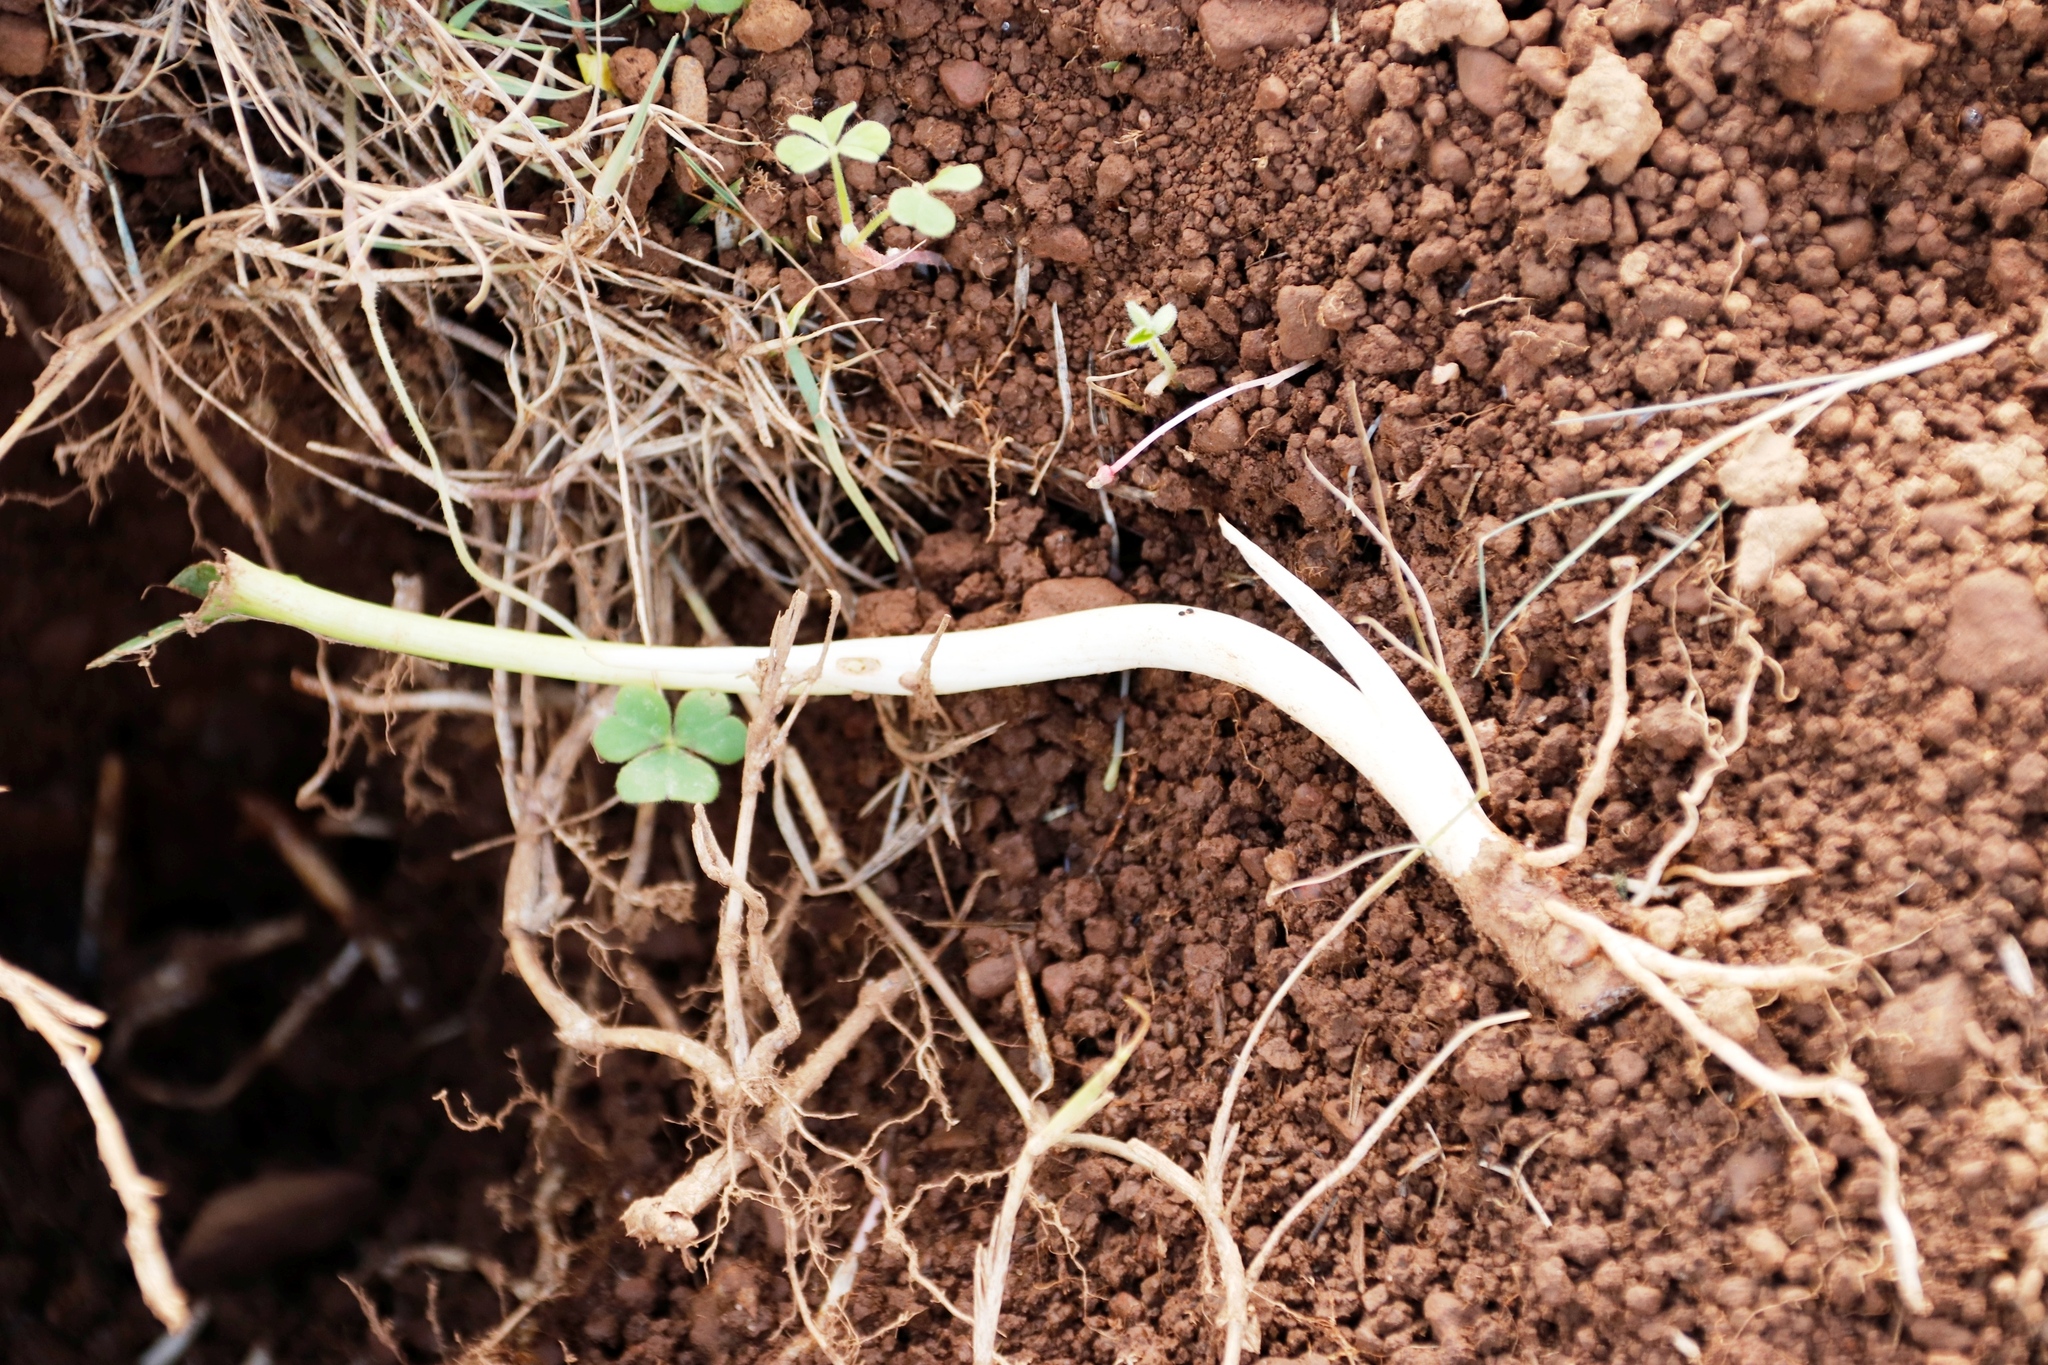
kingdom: Plantae
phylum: Tracheophyta
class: Liliopsida
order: Alismatales
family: Araceae
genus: Zantedeschia
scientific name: Zantedeschia aethiopica
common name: Altar-lily
